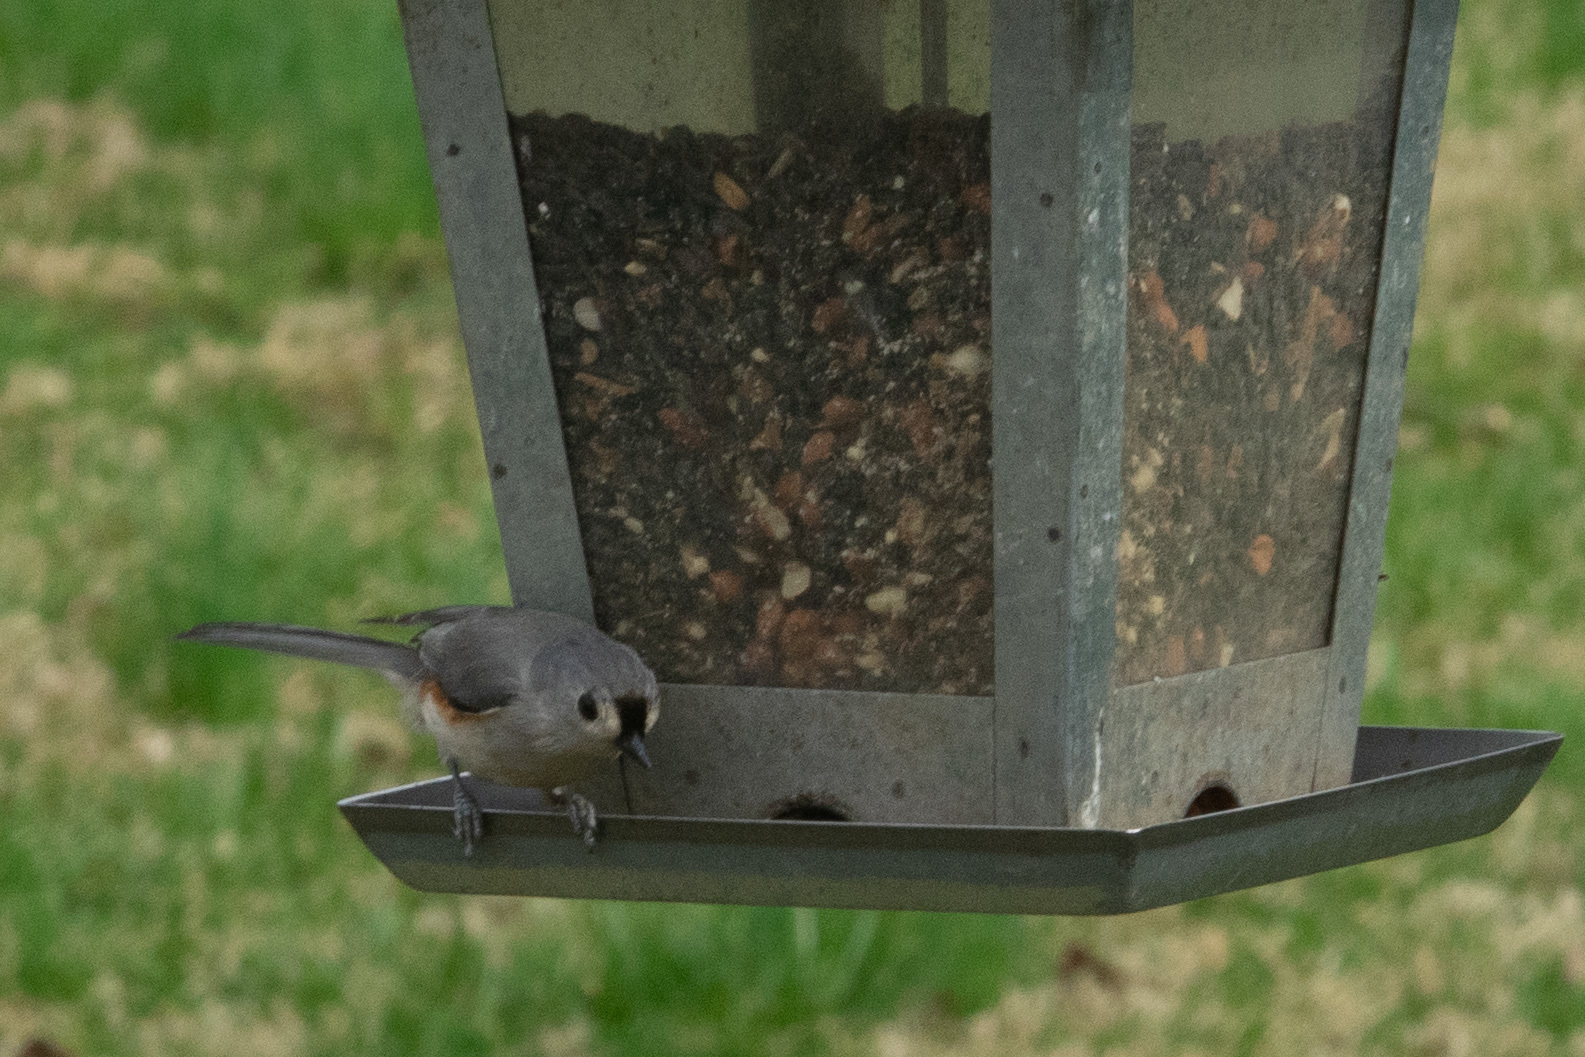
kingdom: Animalia
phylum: Chordata
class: Aves
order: Passeriformes
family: Paridae
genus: Baeolophus
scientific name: Baeolophus bicolor
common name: Tufted titmouse
